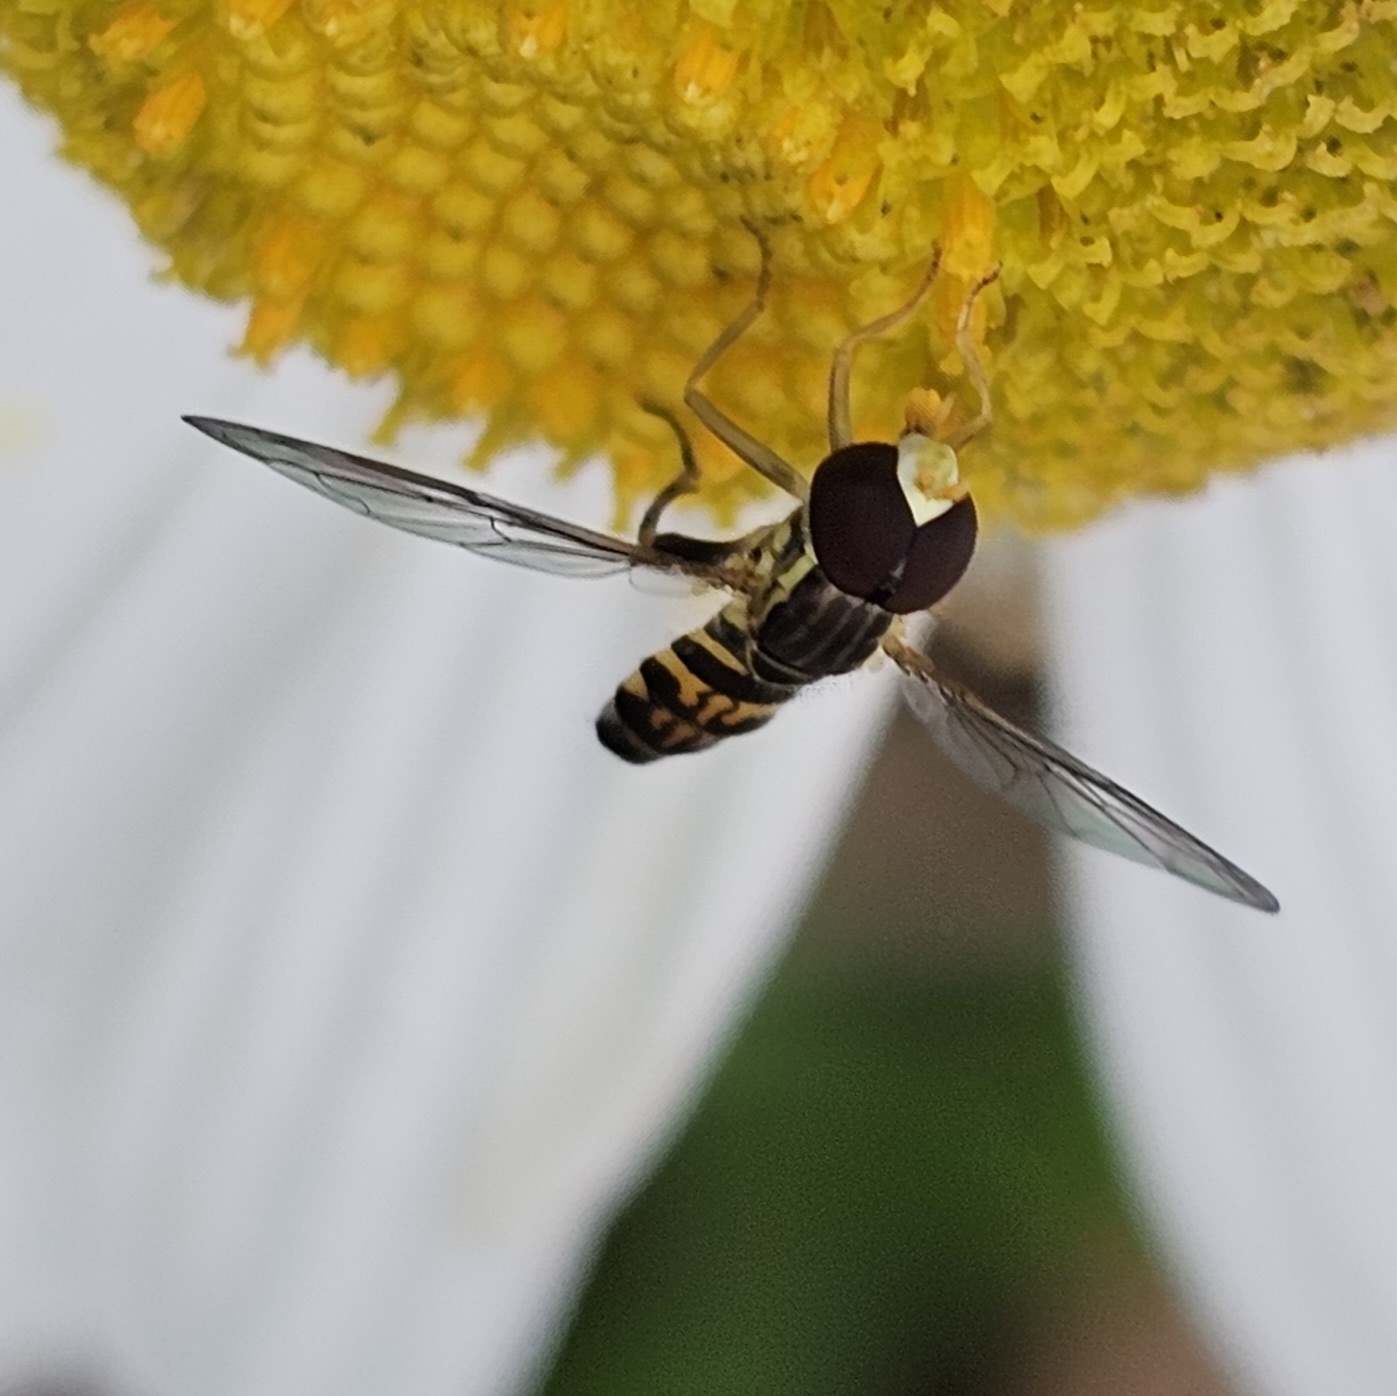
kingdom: Animalia
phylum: Arthropoda
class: Insecta
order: Diptera
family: Syrphidae
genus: Toxomerus
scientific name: Toxomerus geminatus
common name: Eastern calligrapher
